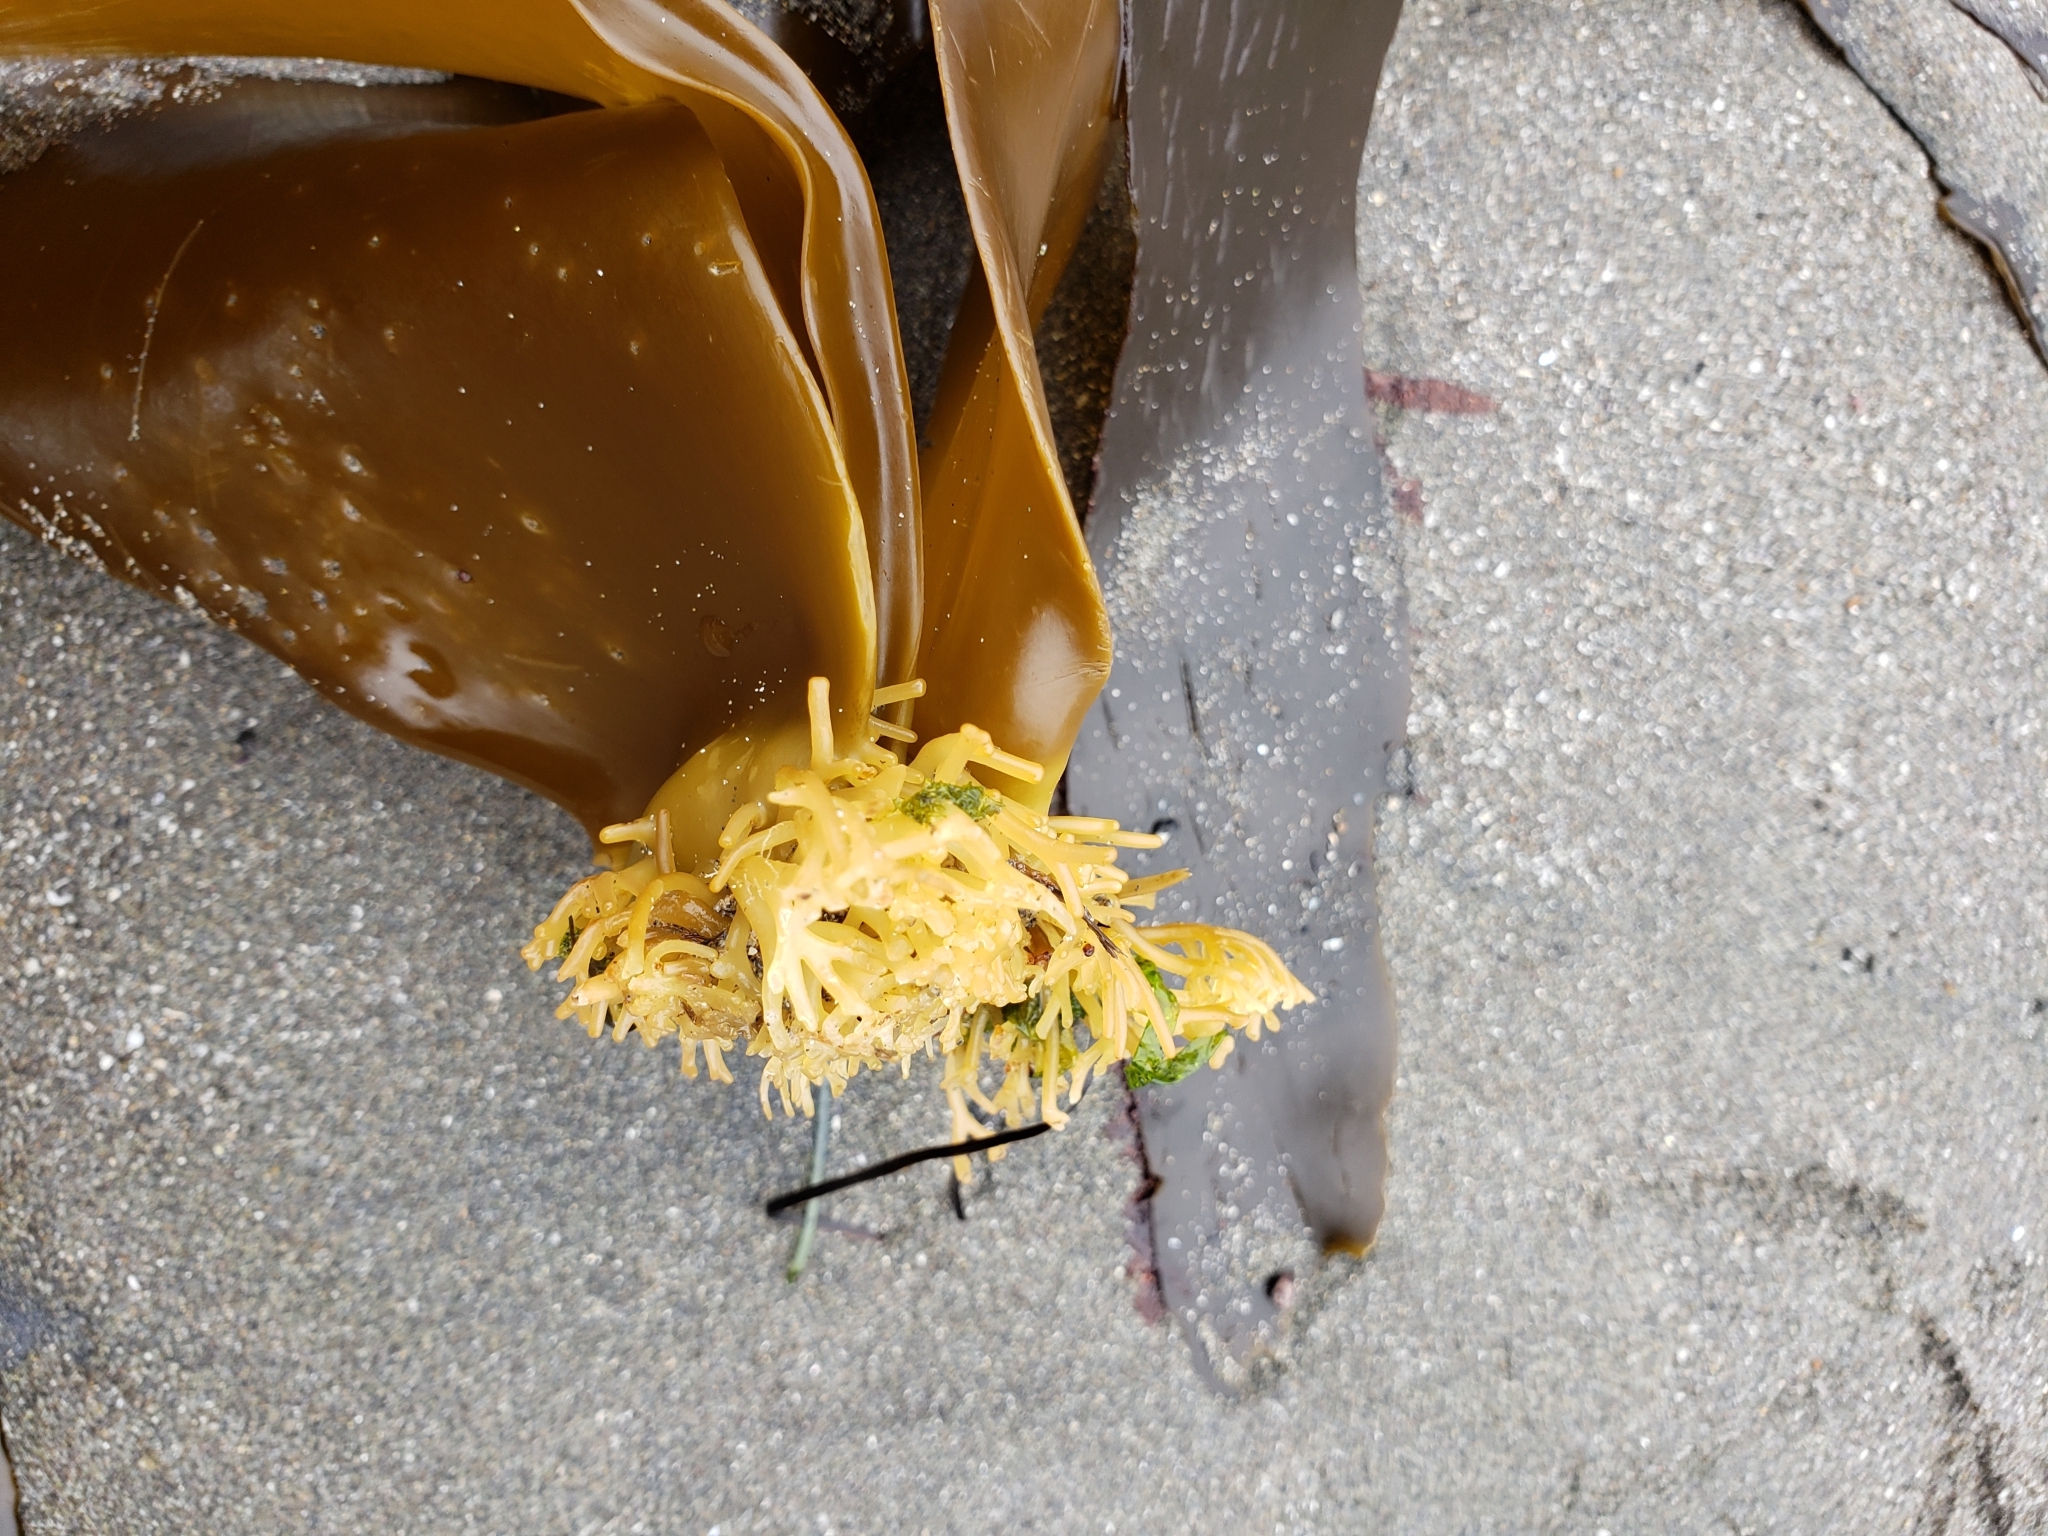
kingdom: Chromista
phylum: Ochrophyta
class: Phaeophyceae
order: Laminariales
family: Laminariaceae
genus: Hedophyllum
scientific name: Hedophyllum sessile
